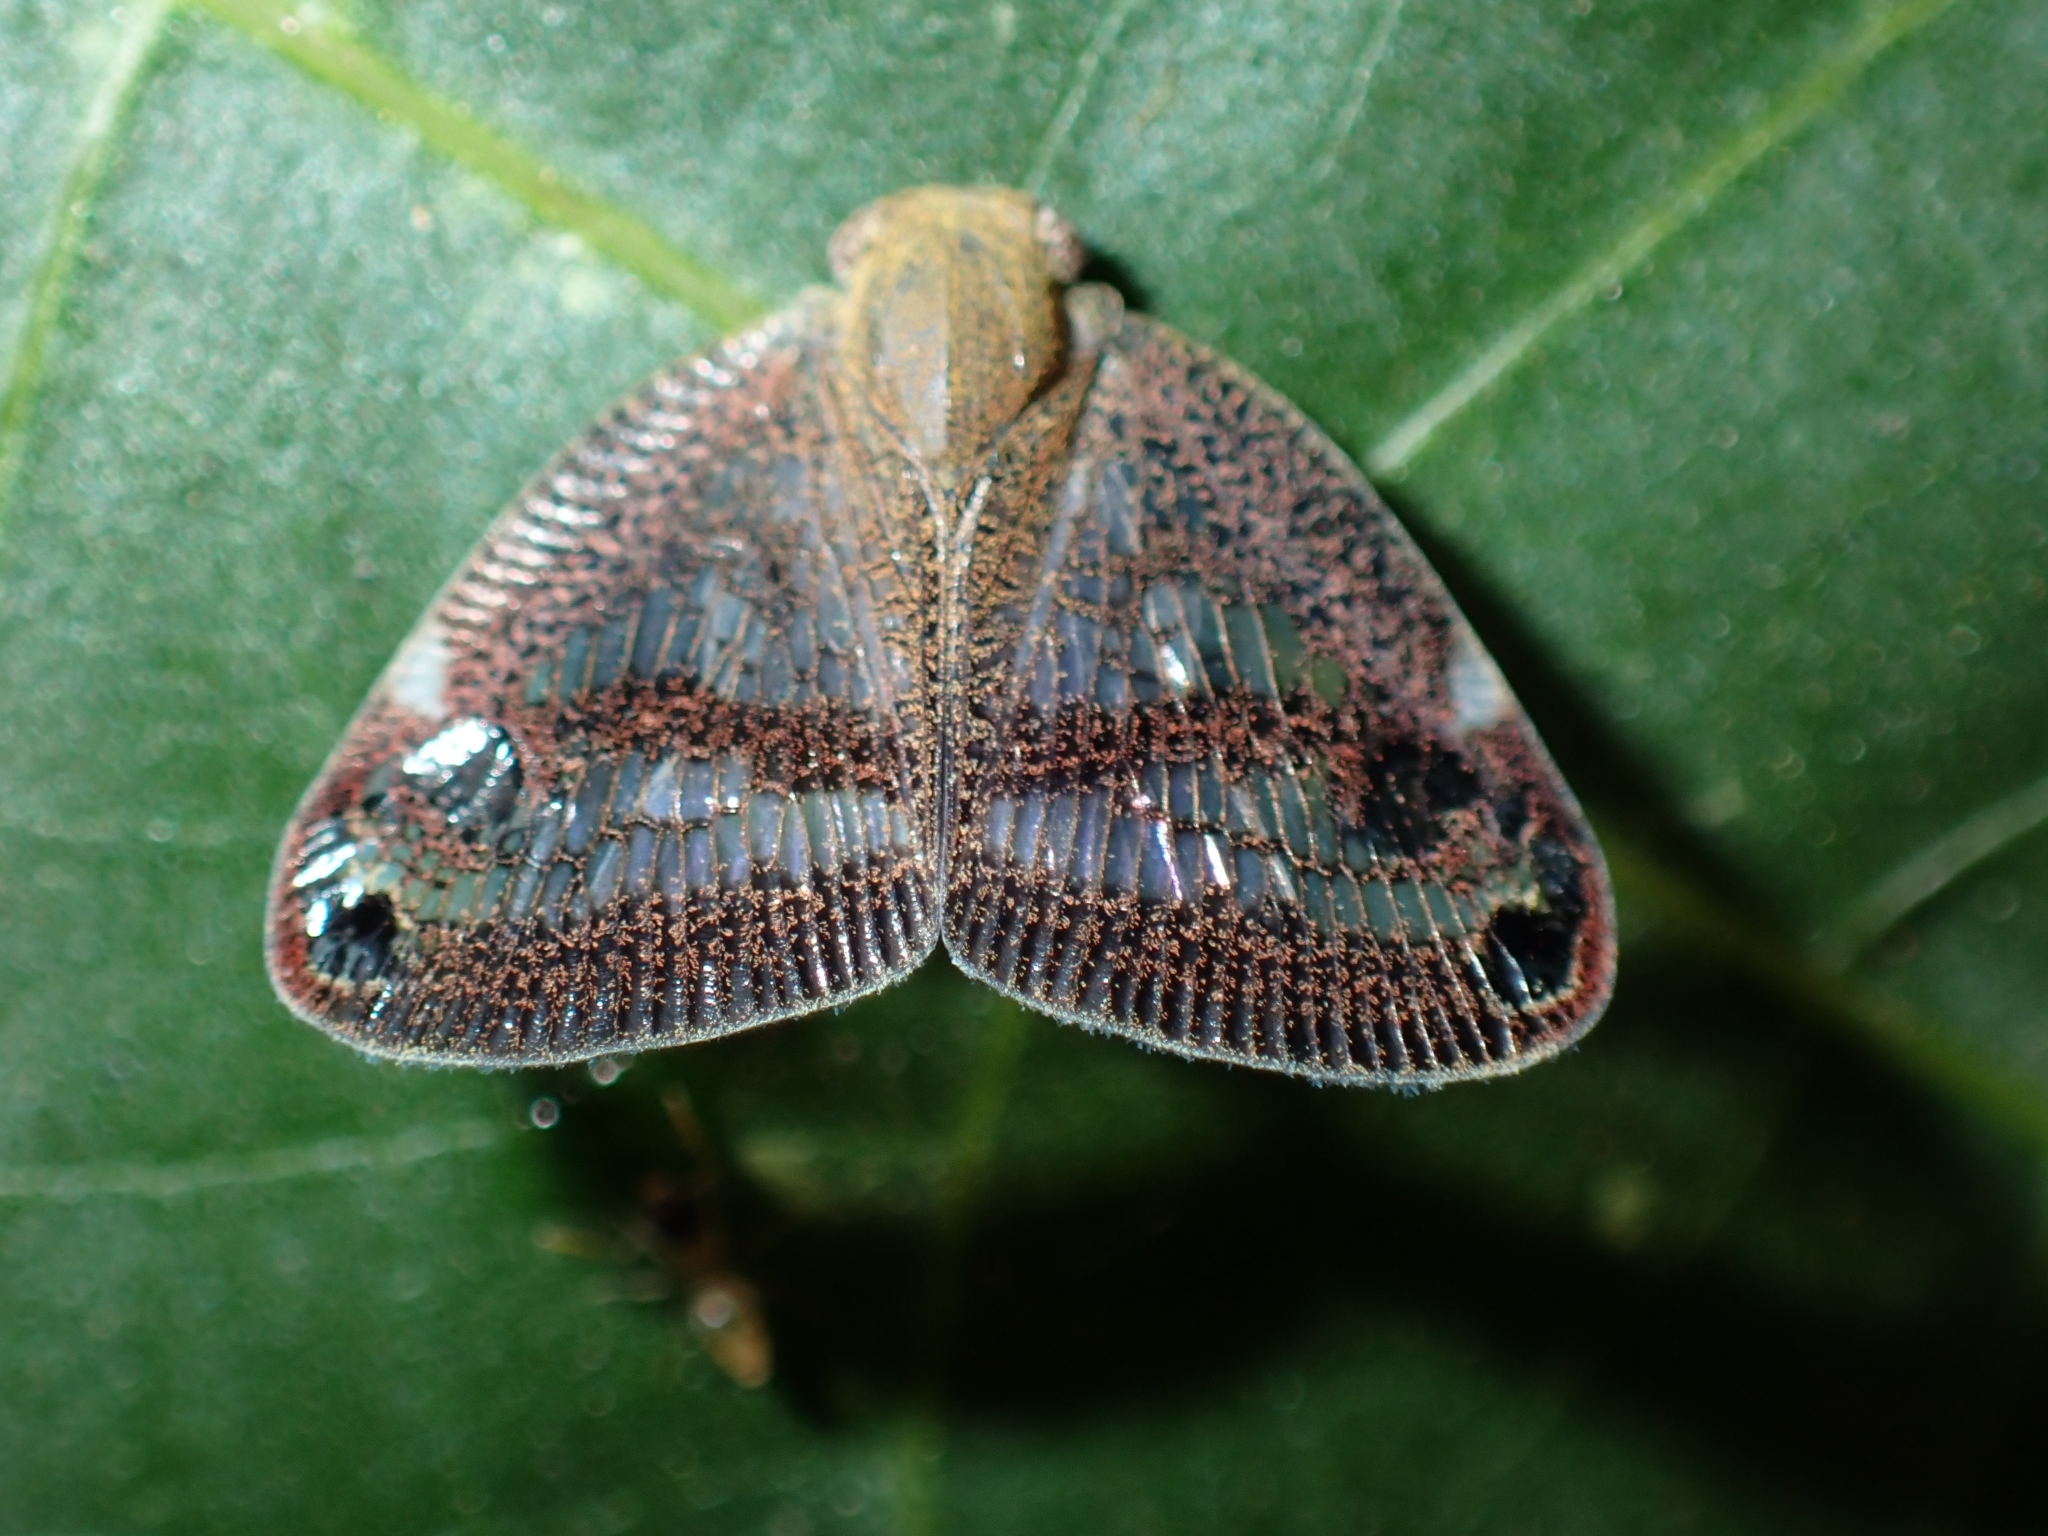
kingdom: Animalia
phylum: Arthropoda
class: Insecta
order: Hemiptera
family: Ricaniidae
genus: Parapiromis
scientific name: Parapiromis translucida
